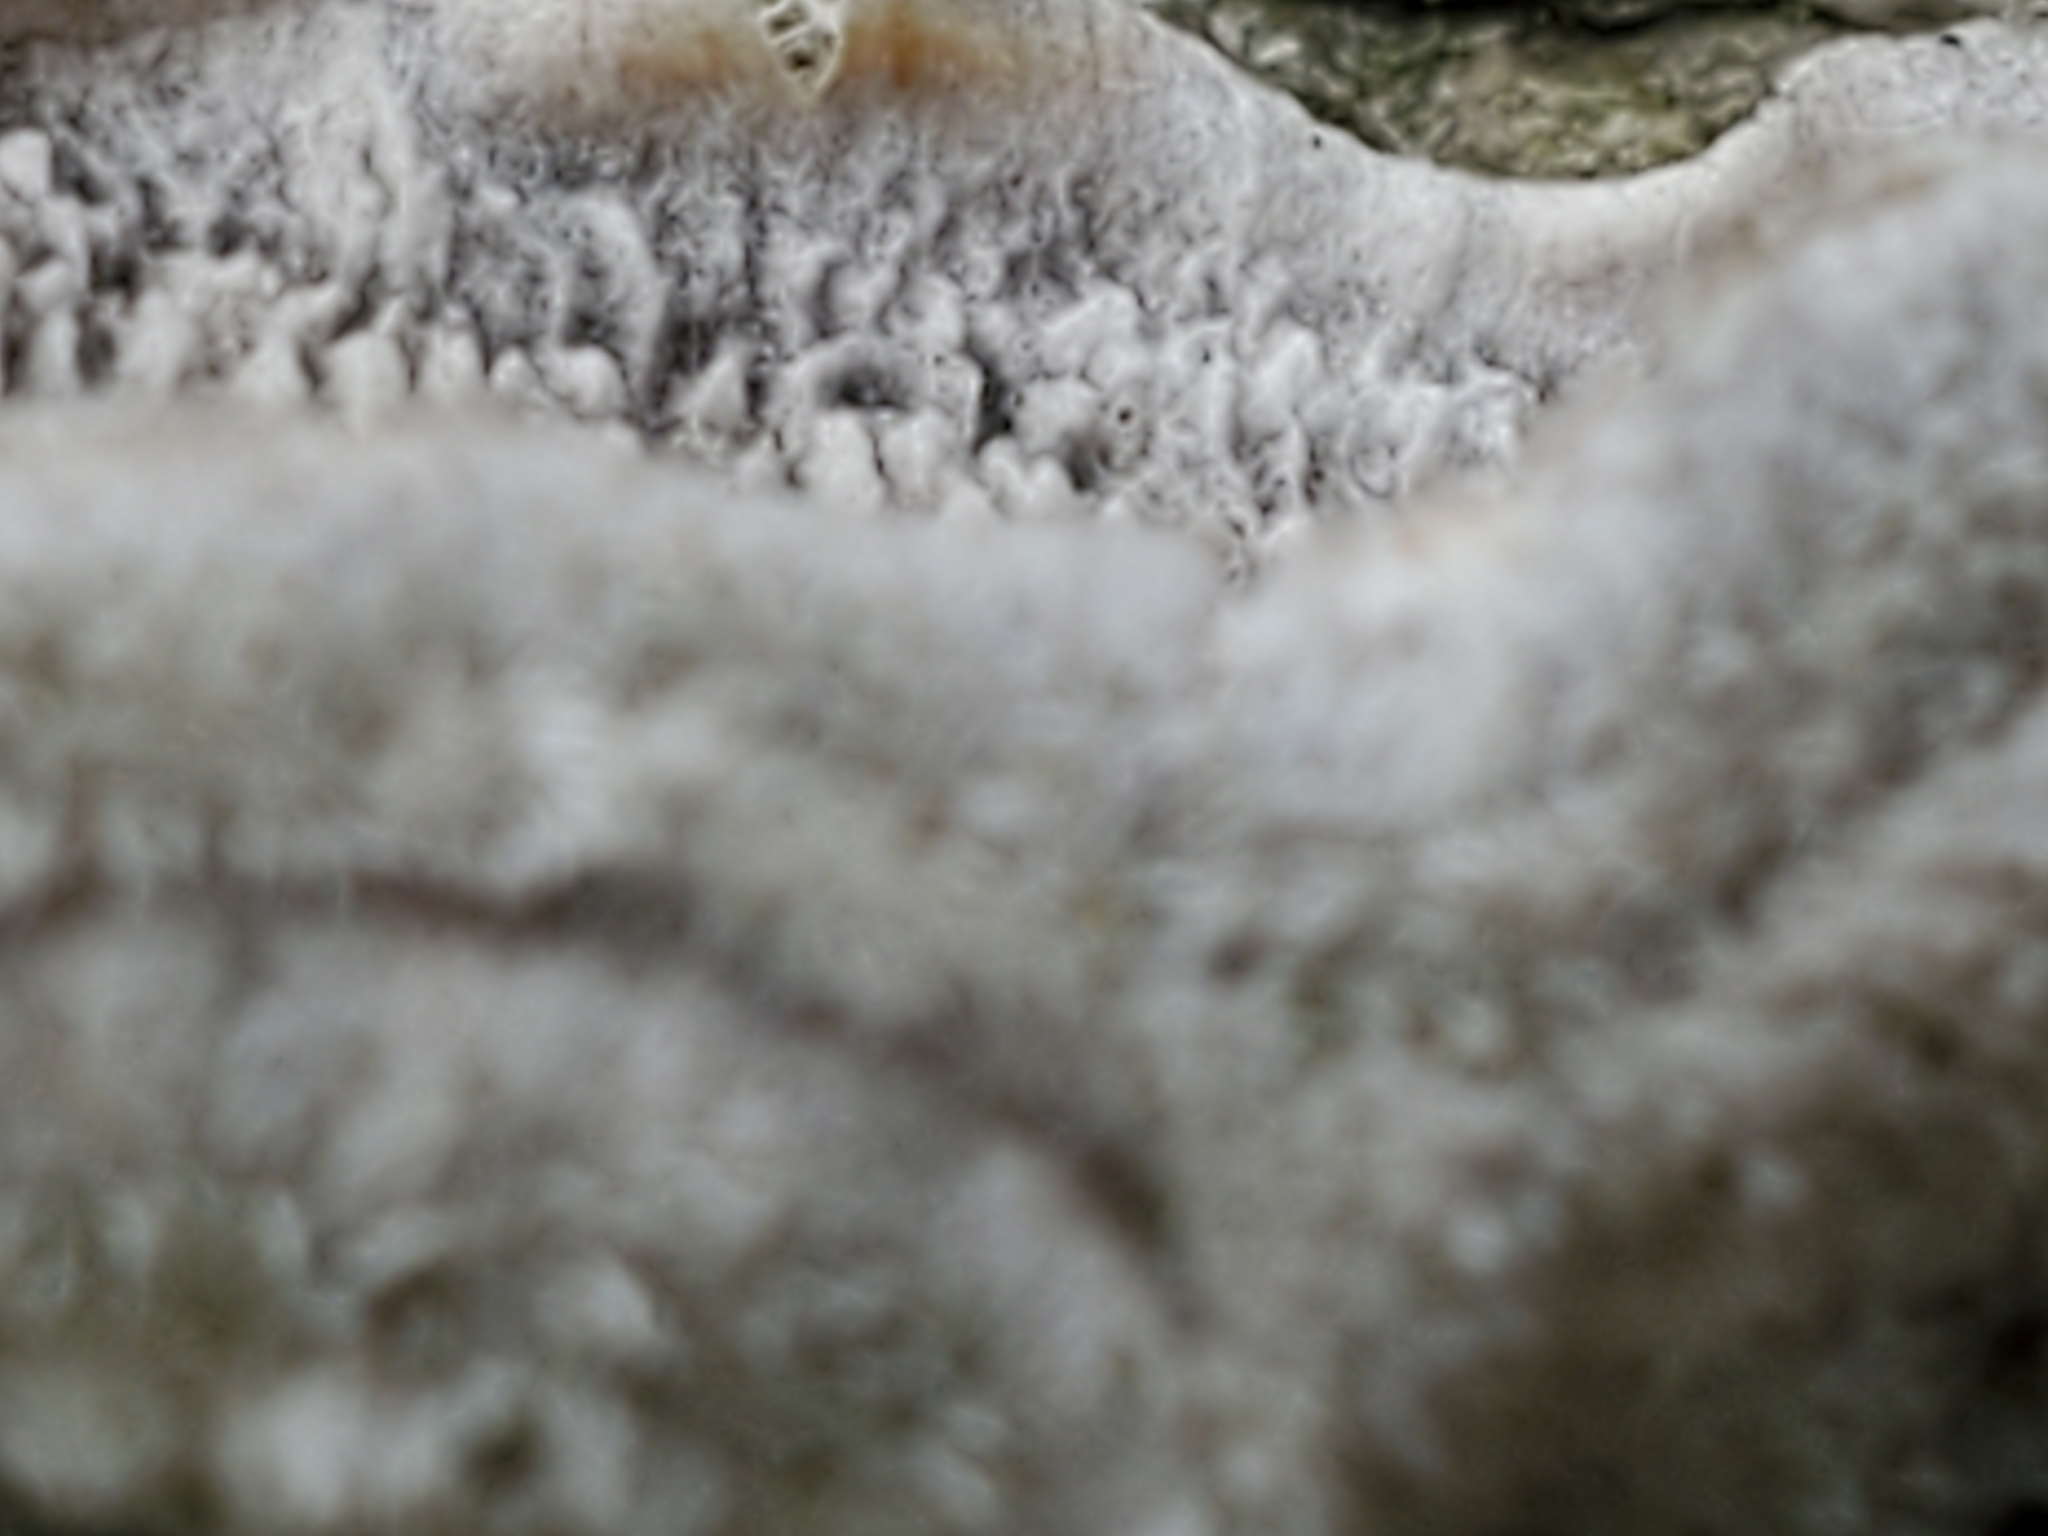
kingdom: Fungi
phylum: Basidiomycota
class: Agaricomycetes
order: Polyporales
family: Cerrenaceae
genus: Cerrena
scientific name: Cerrena unicolor
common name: Mossy maze polypore
